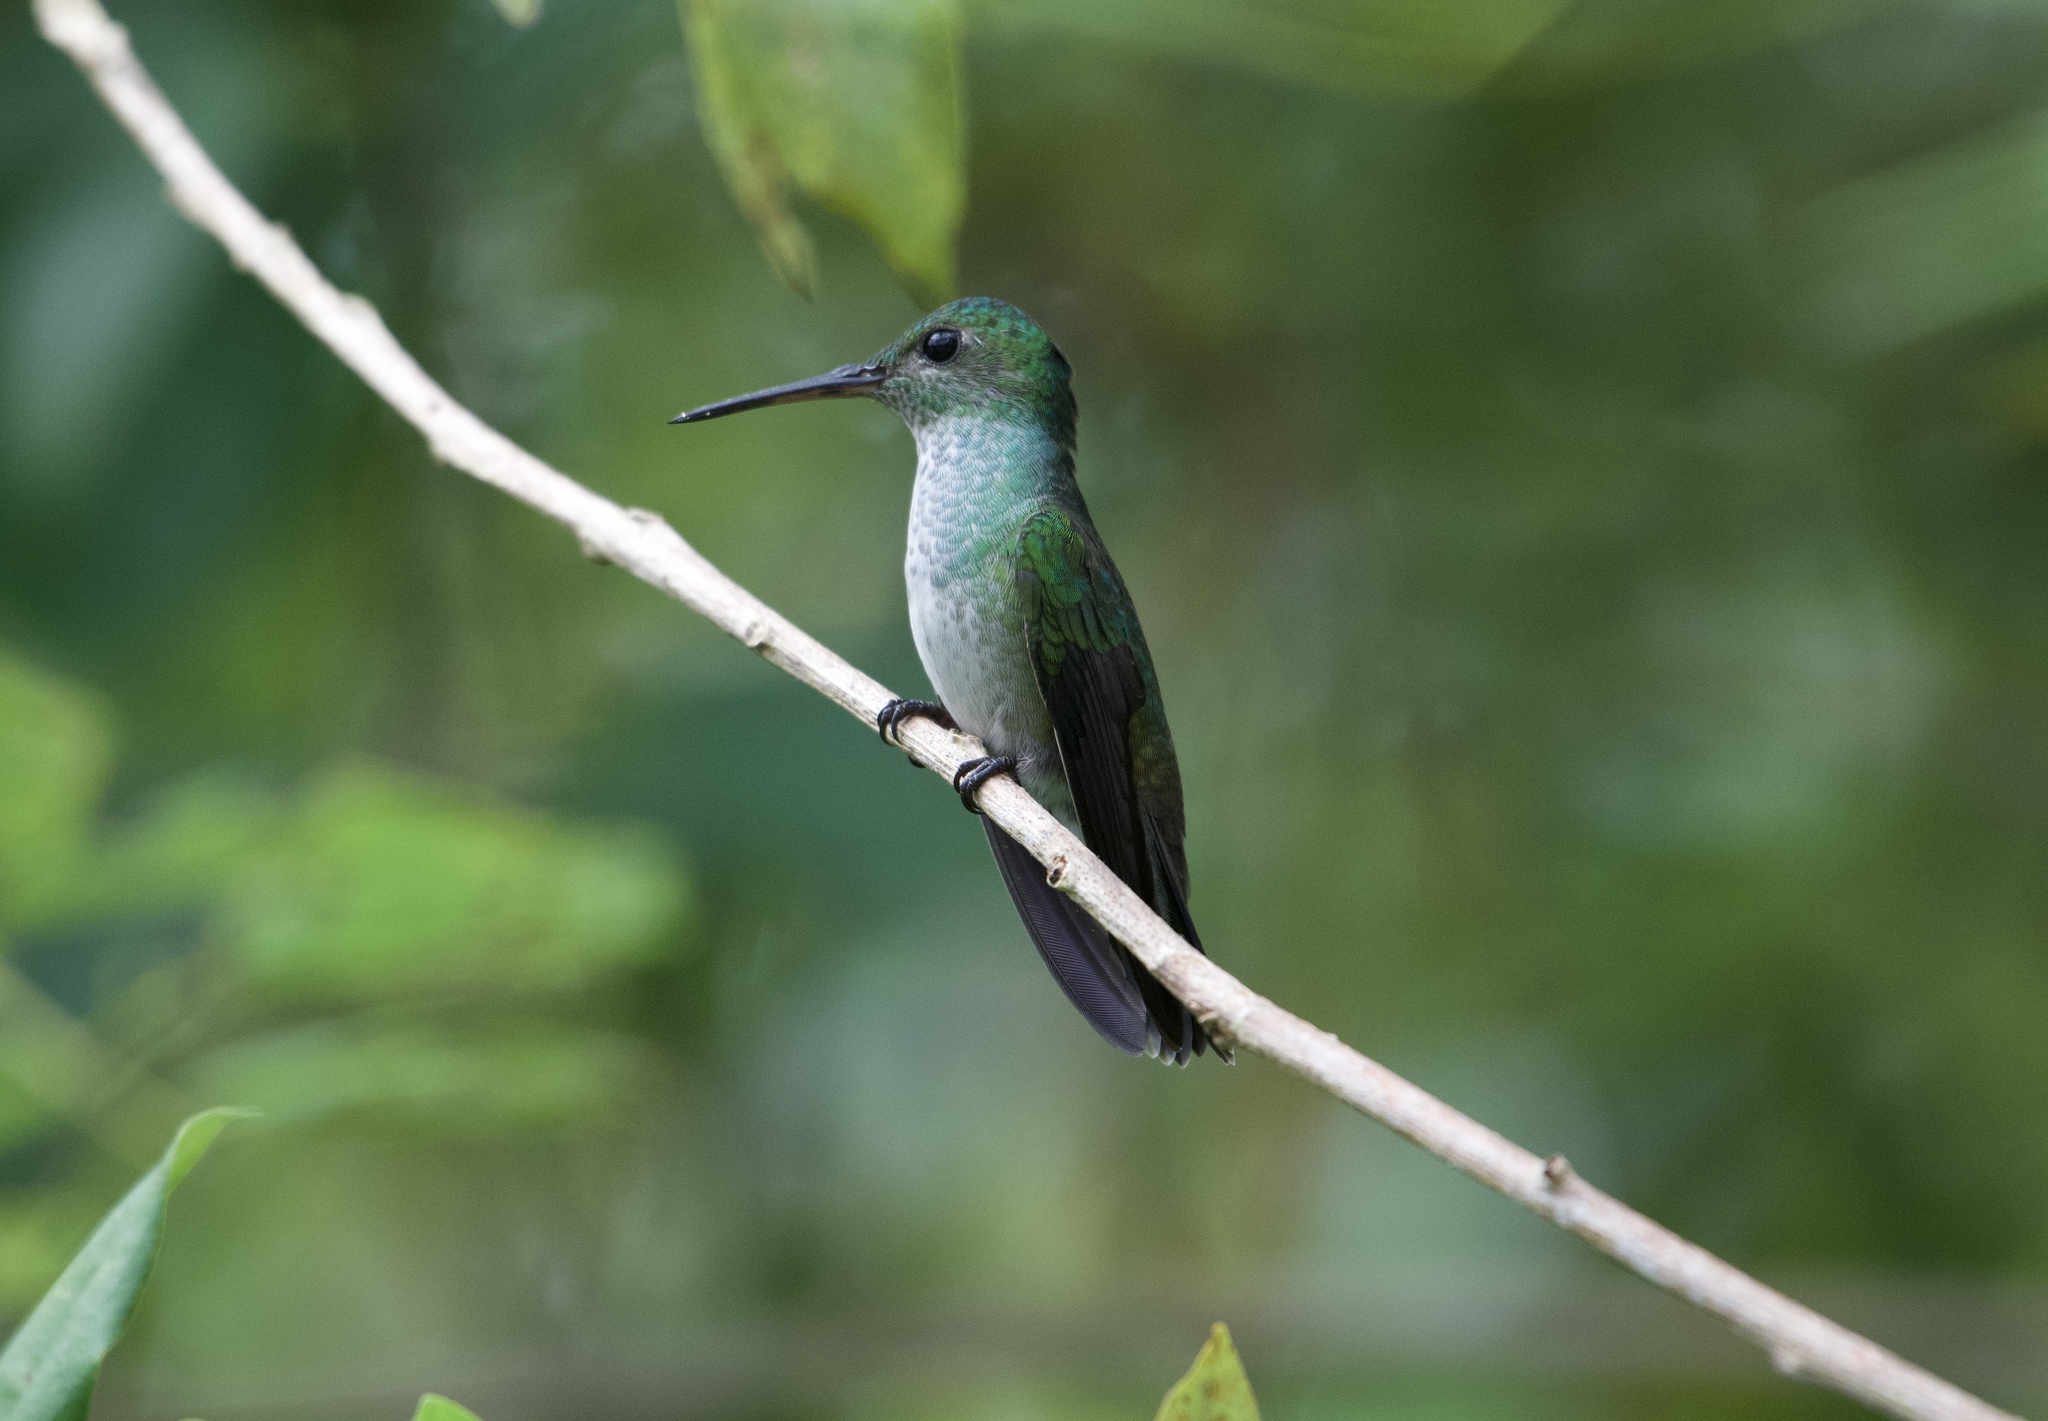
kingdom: Animalia
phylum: Chordata
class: Aves
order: Apodiformes
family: Trochilidae
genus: Polyerata
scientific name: Polyerata amabilis
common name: Blue-chested hummingbird
